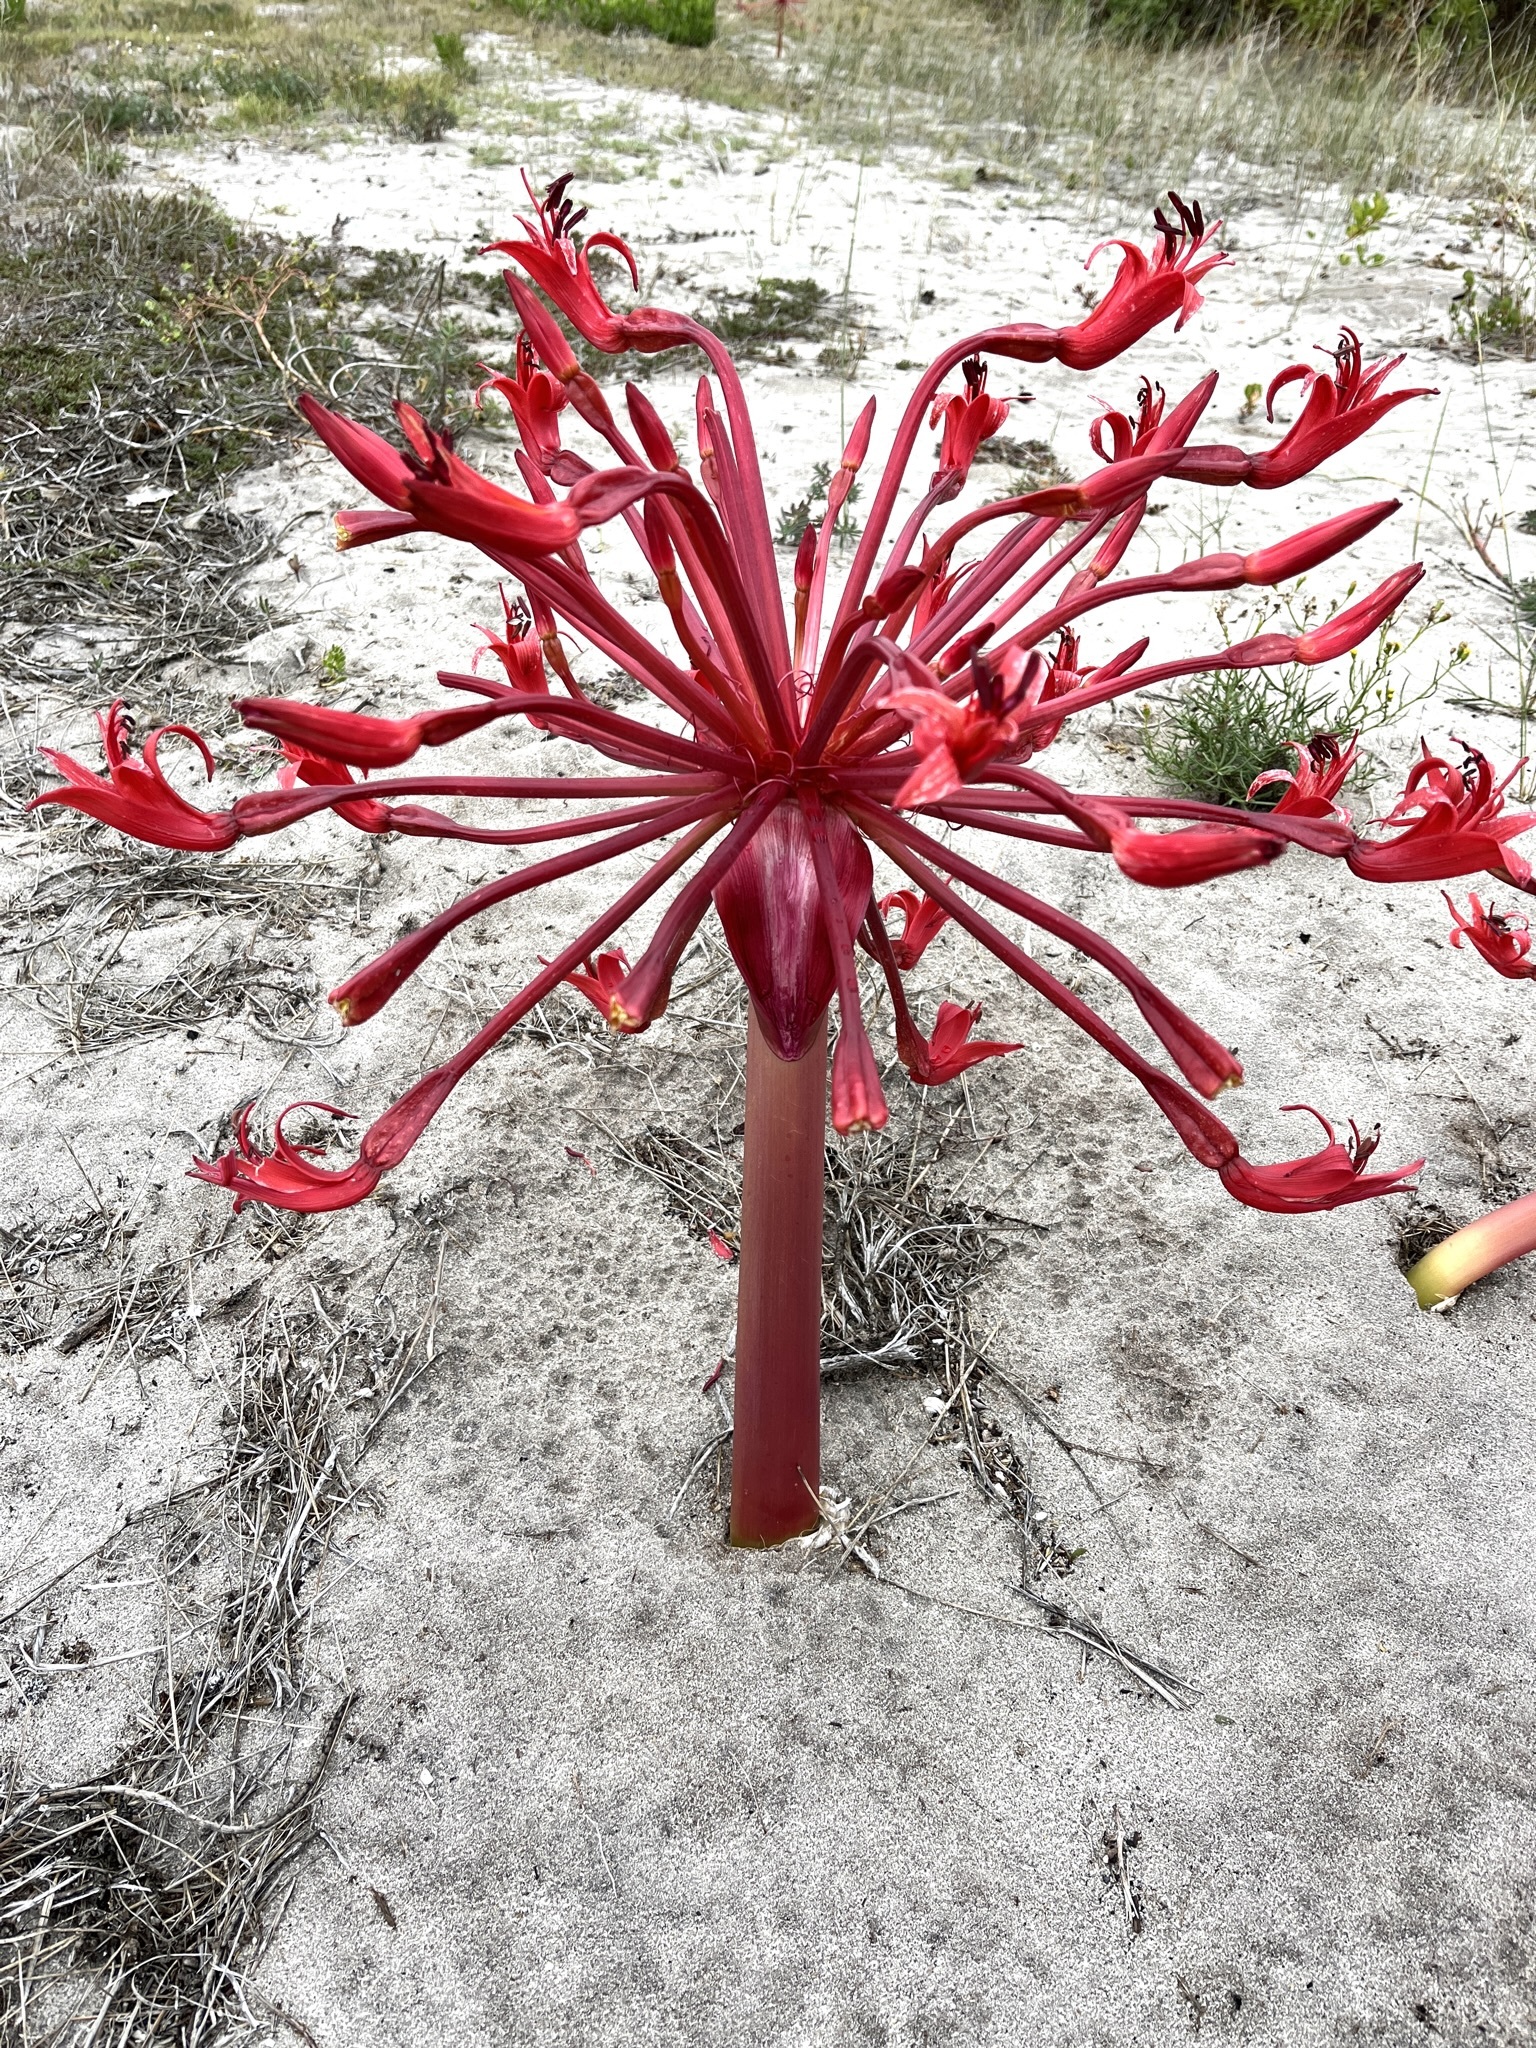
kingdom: Plantae
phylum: Tracheophyta
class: Liliopsida
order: Asparagales
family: Amaryllidaceae
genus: Brunsvigia
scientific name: Brunsvigia orientalis
